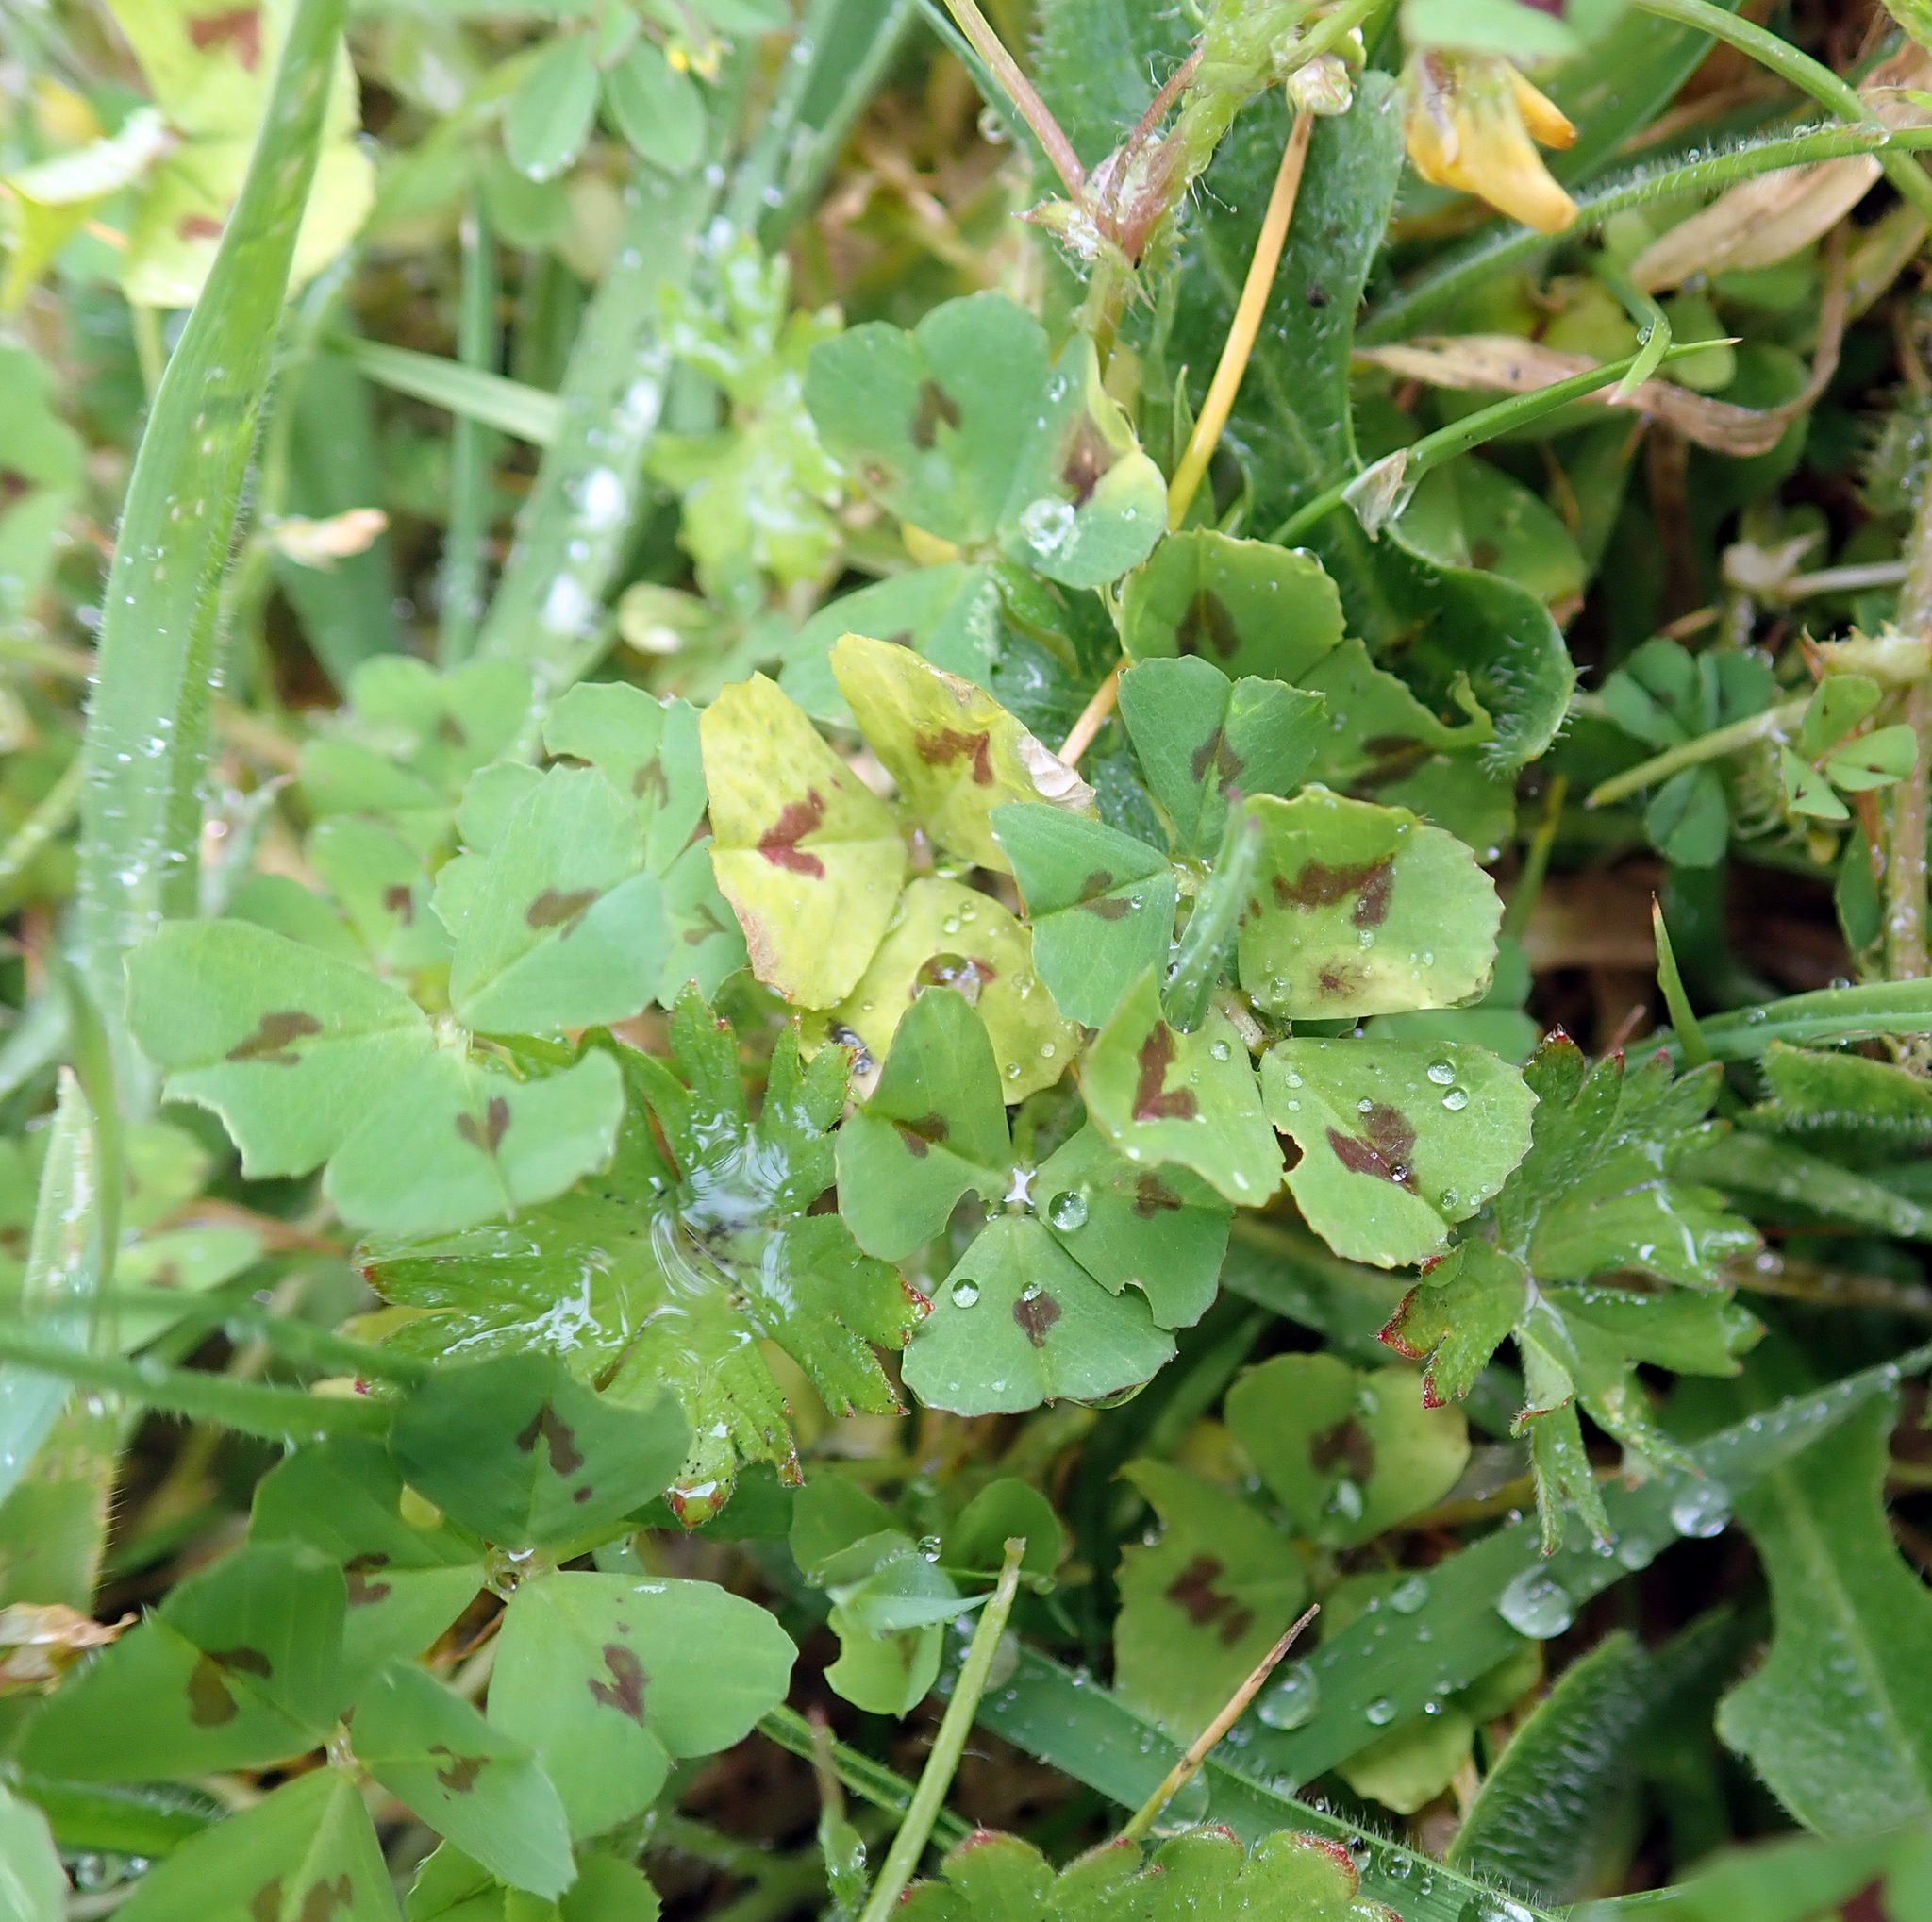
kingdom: Plantae
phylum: Tracheophyta
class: Magnoliopsida
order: Fabales
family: Fabaceae
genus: Medicago
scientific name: Medicago arabica
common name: Spotted medick
